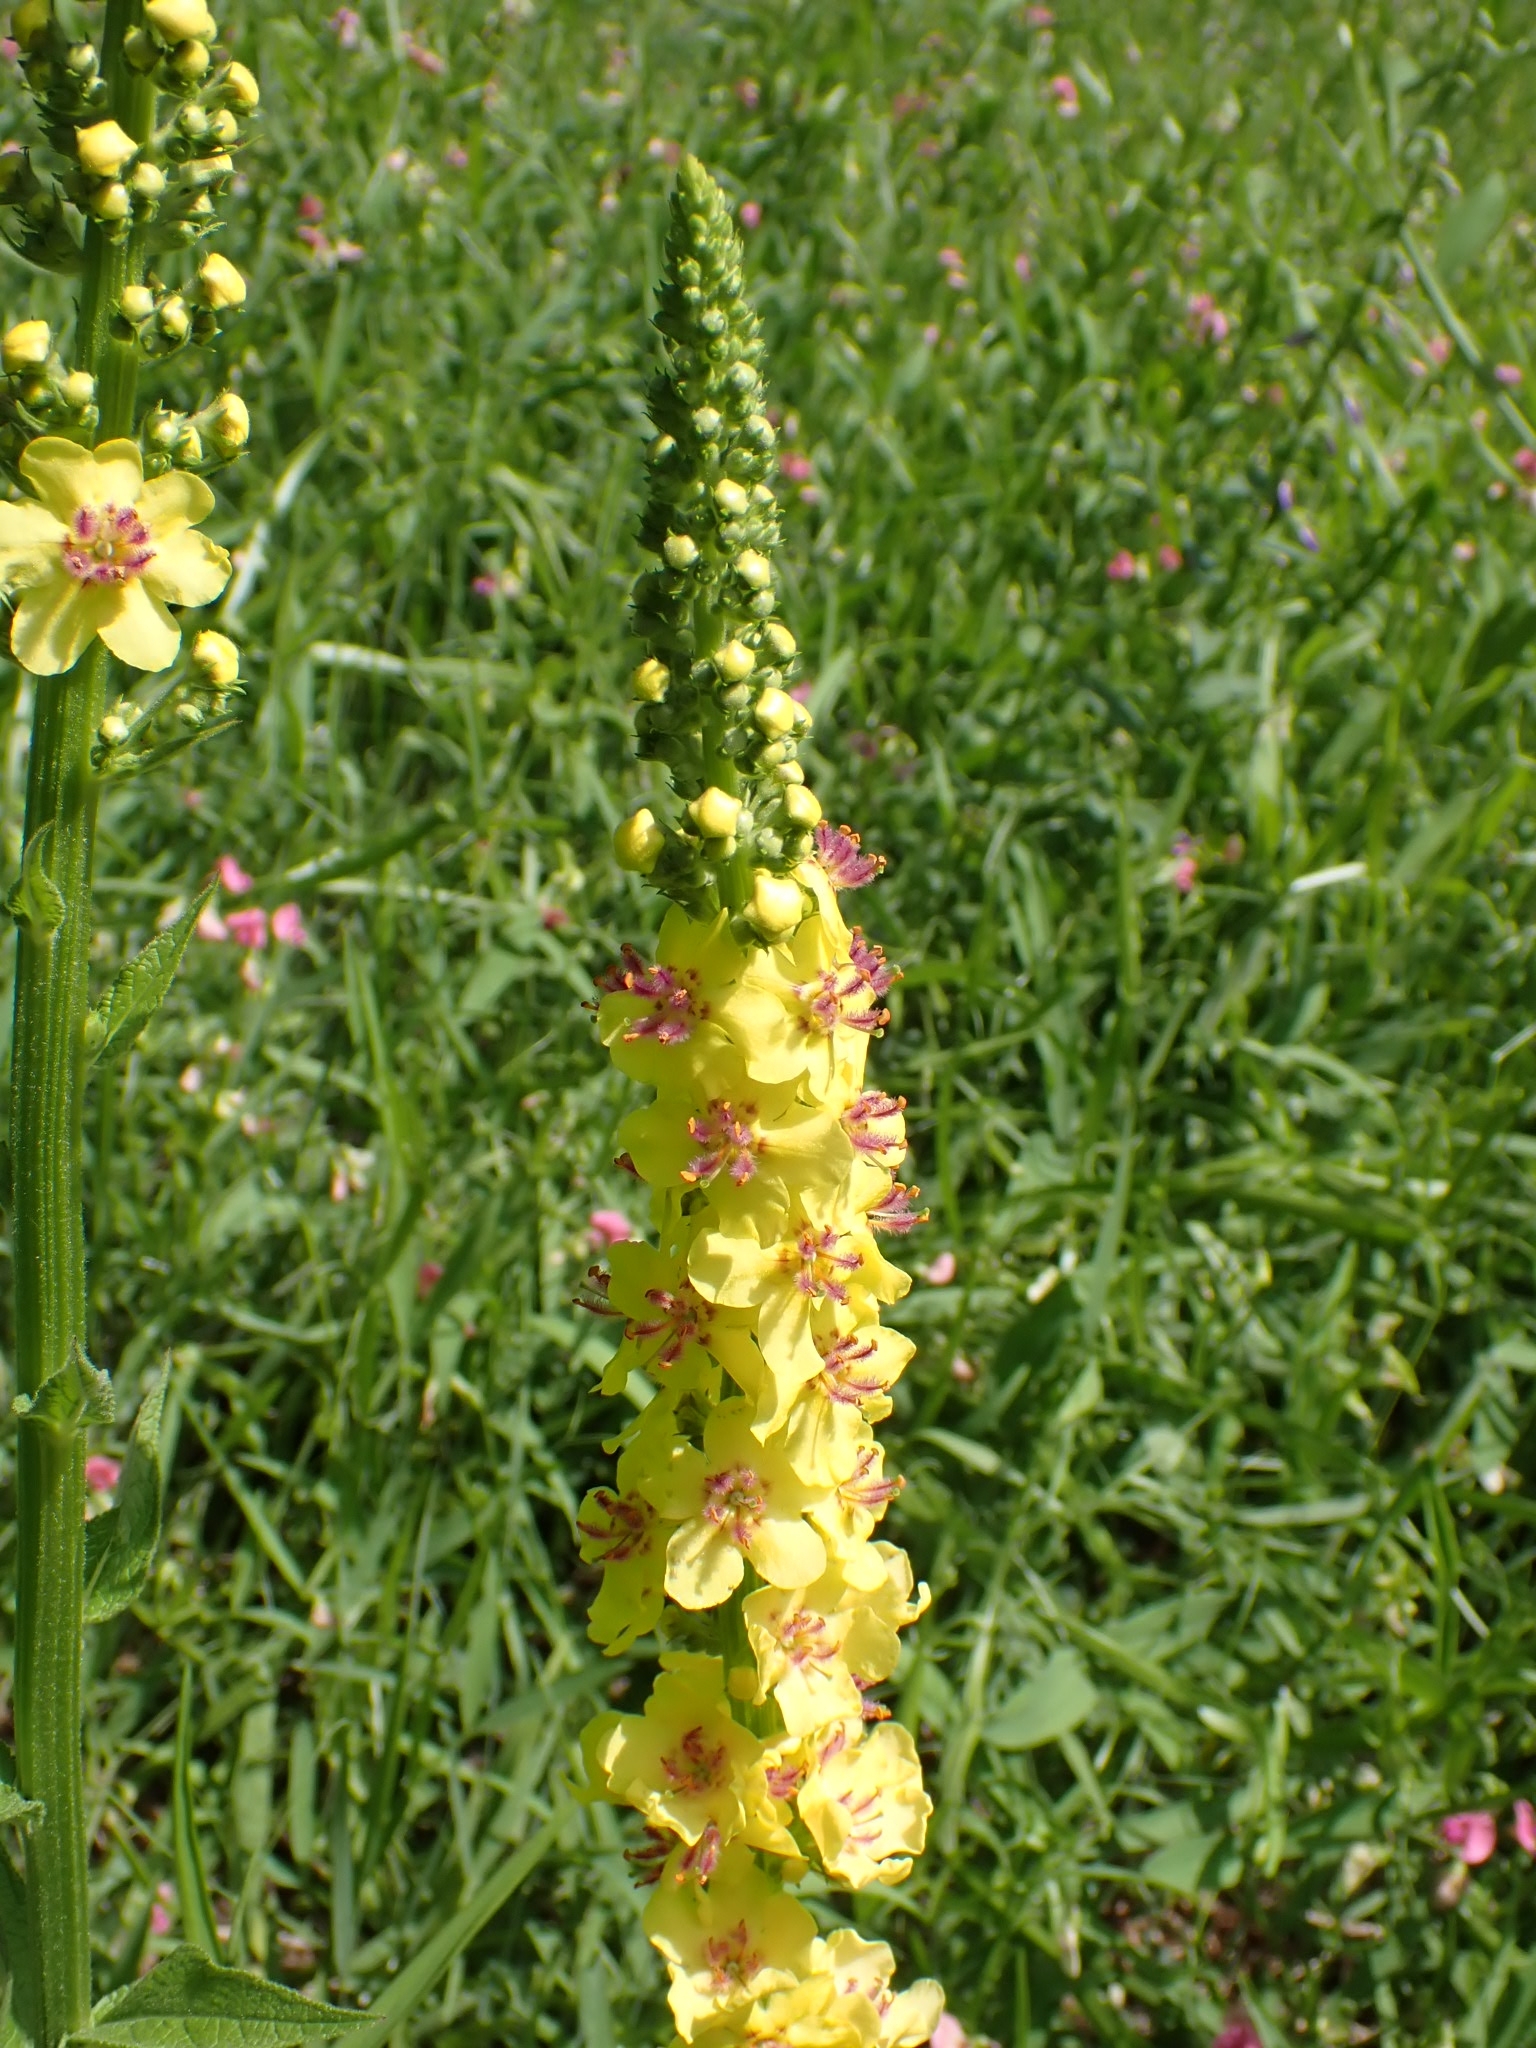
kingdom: Plantae
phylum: Tracheophyta
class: Magnoliopsida
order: Lamiales
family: Scrophulariaceae
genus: Verbascum
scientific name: Verbascum nigrum
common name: Dark mullein
